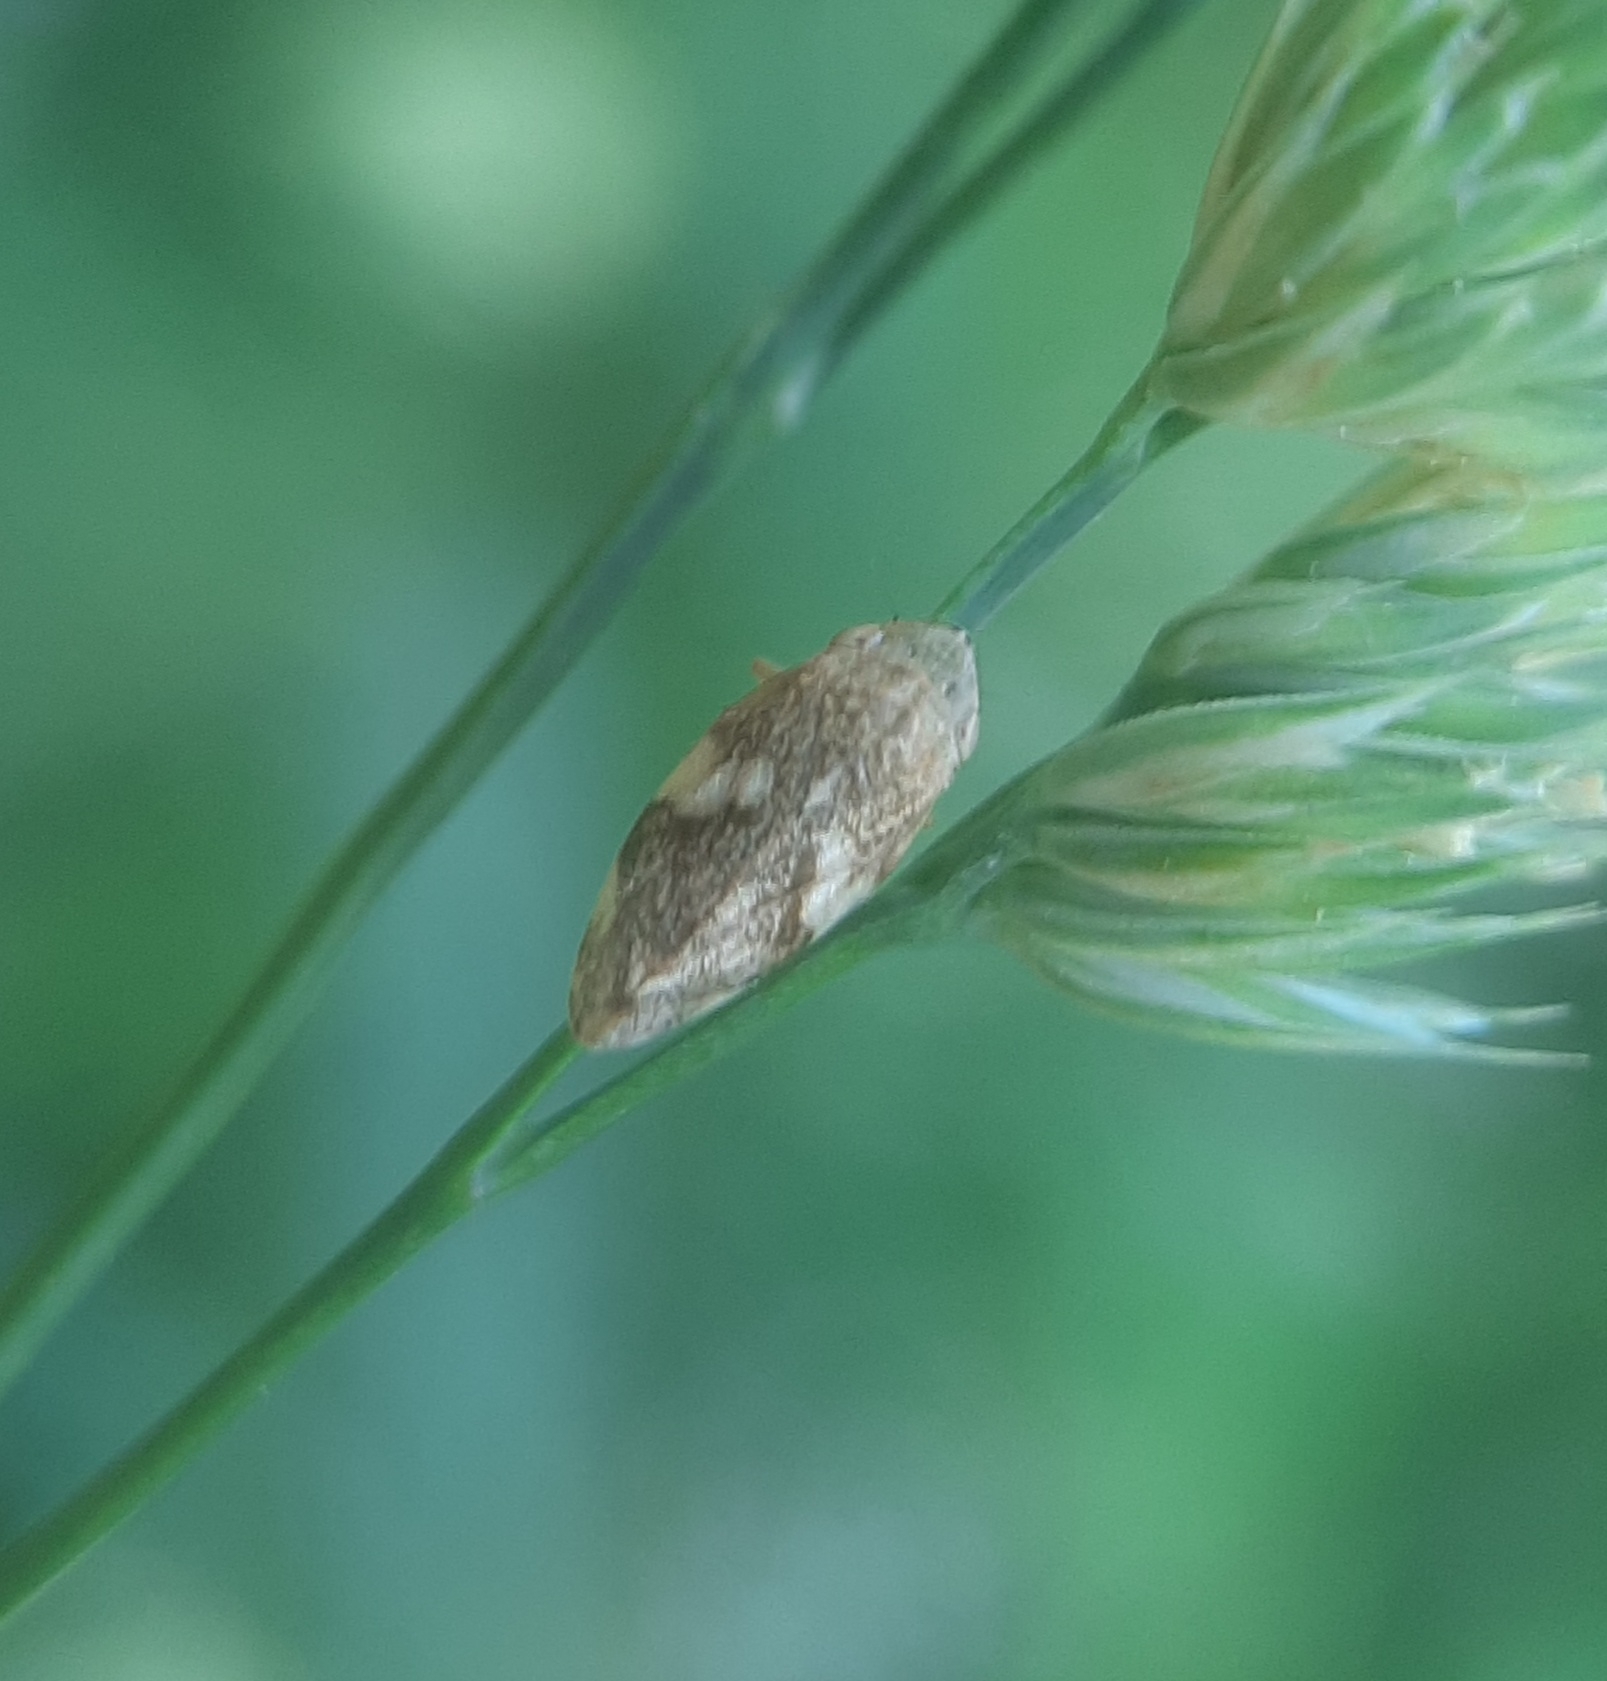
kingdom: Animalia
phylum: Arthropoda
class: Insecta
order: Hemiptera
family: Aphrophoridae
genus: Philaenus
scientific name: Philaenus spumarius
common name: Meadow spittlebug
